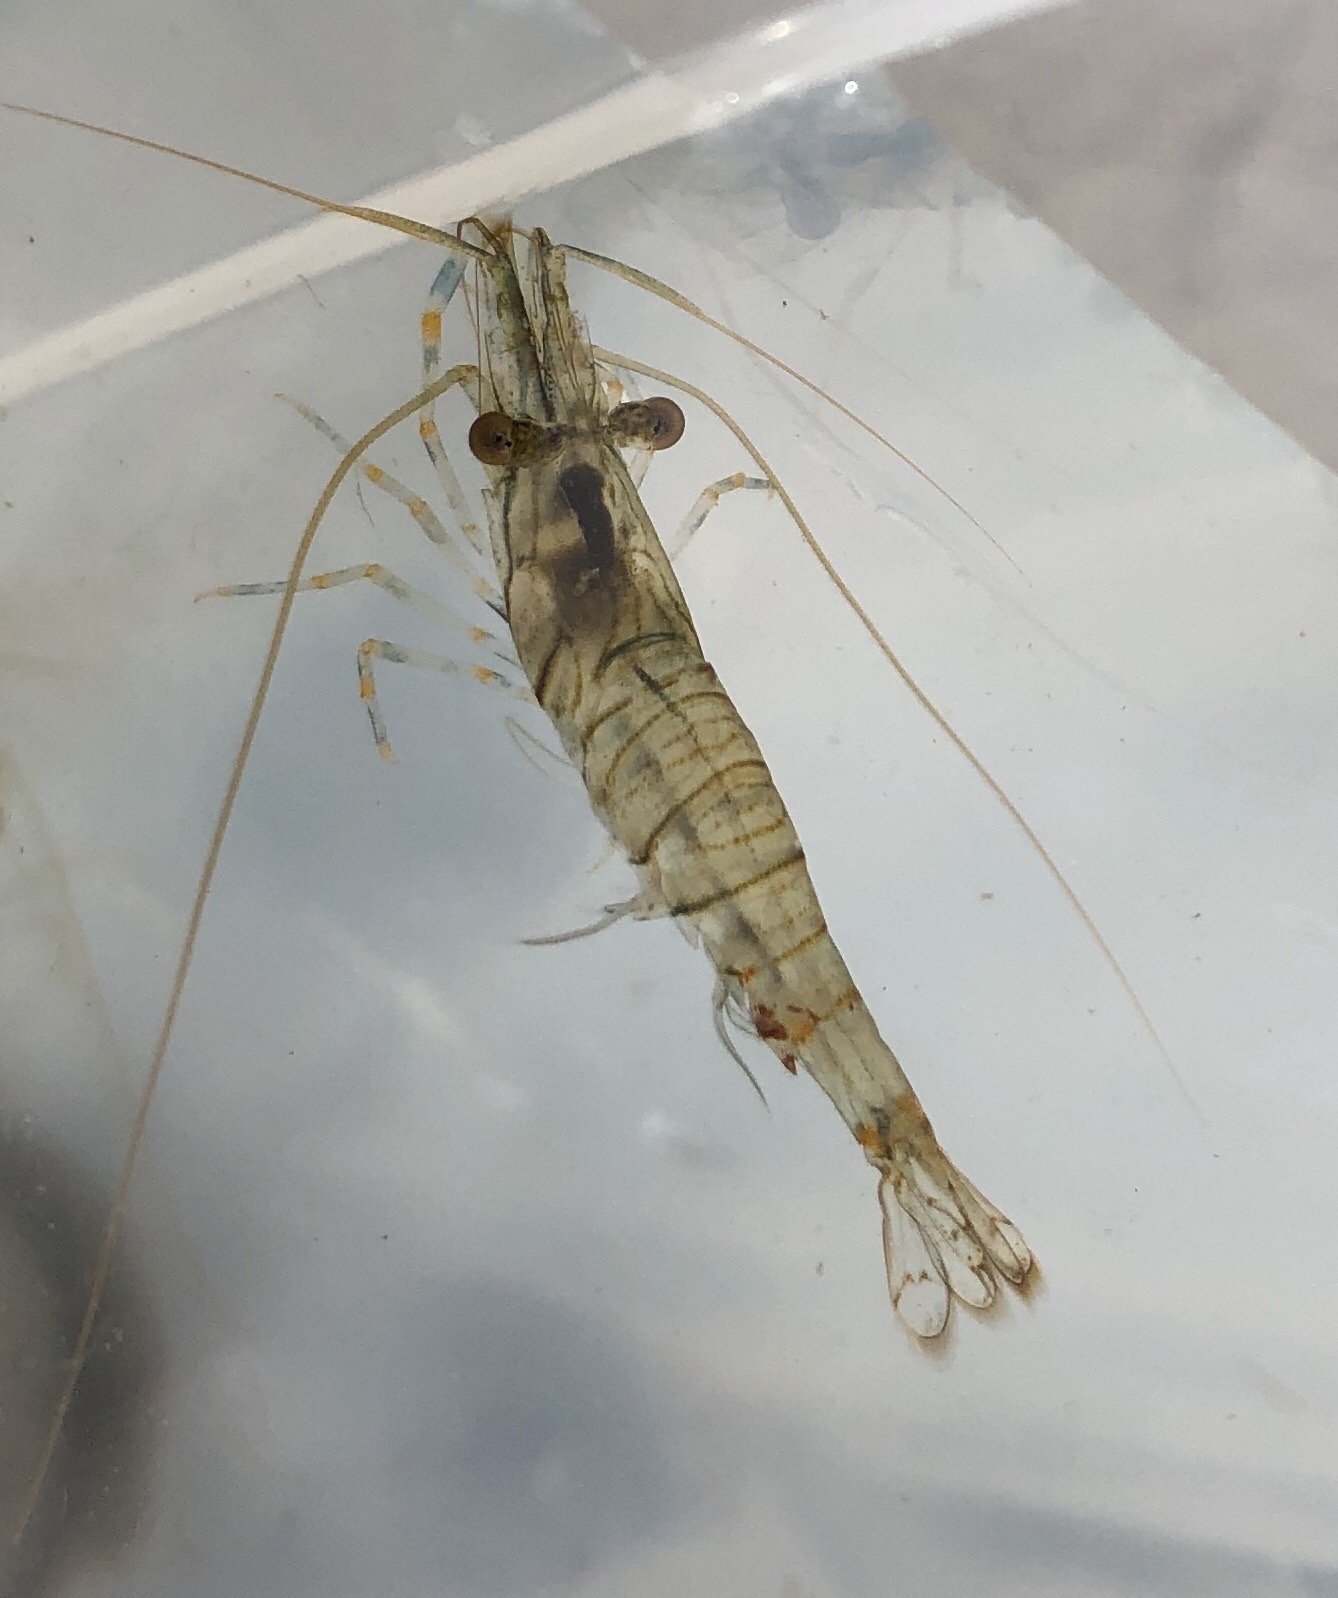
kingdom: Animalia
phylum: Arthropoda
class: Malacostraca
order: Decapoda
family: Palaemonidae
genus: Palaemon
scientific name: Palaemon elegans
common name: Grass prawm
